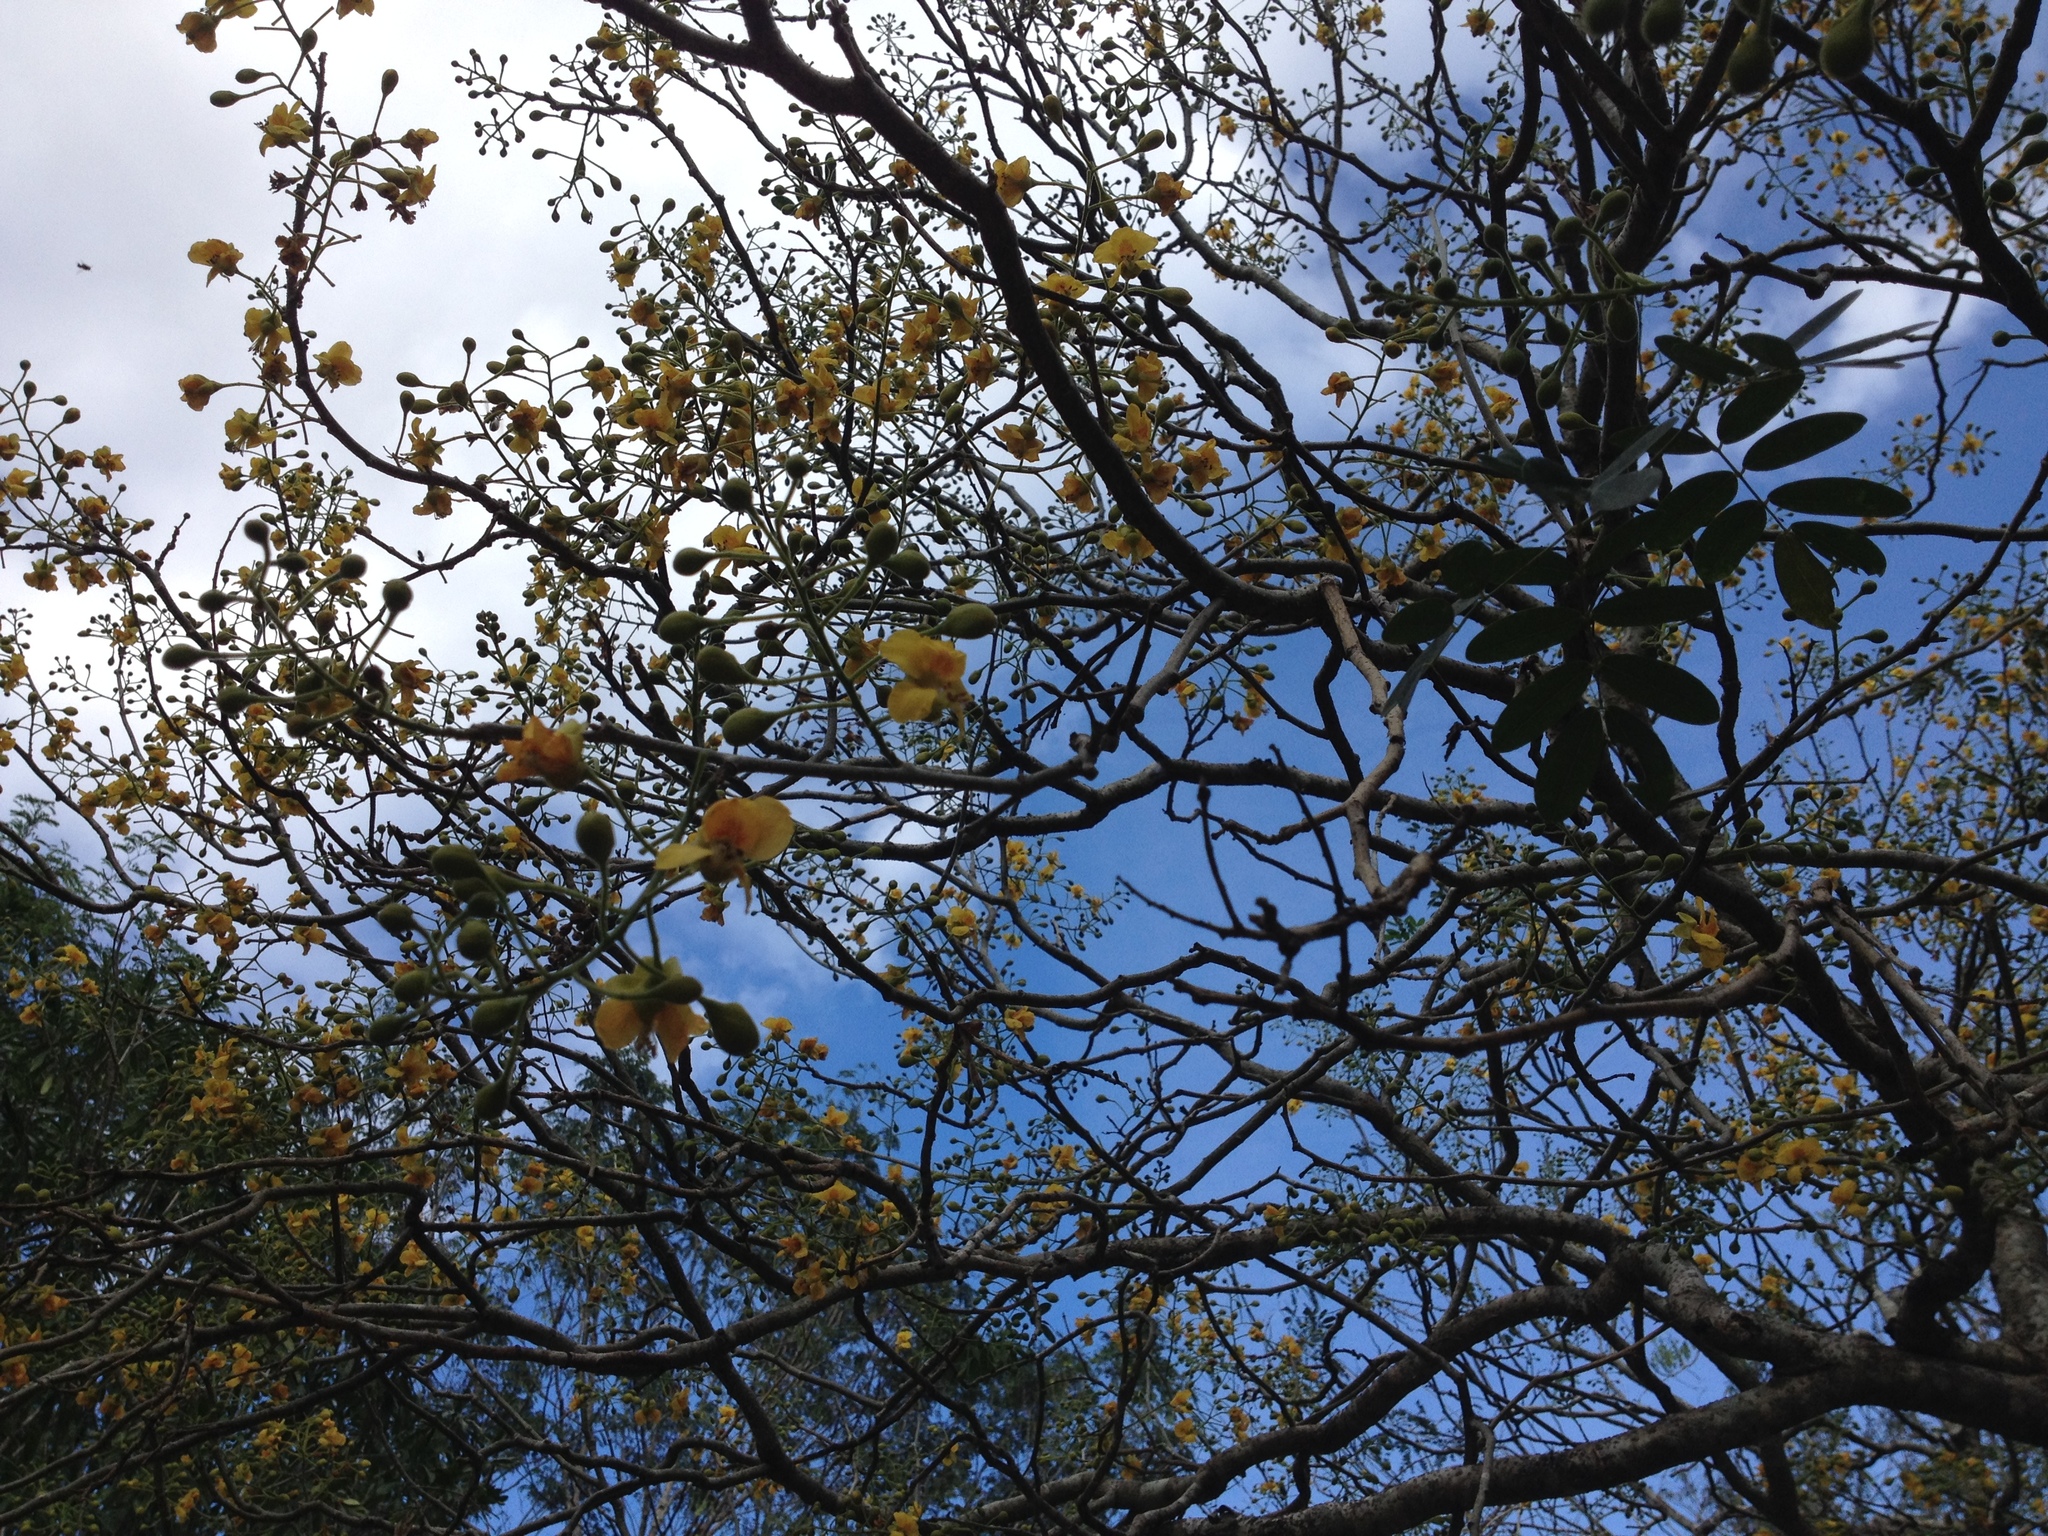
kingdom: Plantae
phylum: Tracheophyta
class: Magnoliopsida
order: Fabales
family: Fabaceae
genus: Erythrostemon
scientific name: Erythrostemon yucatanensis
